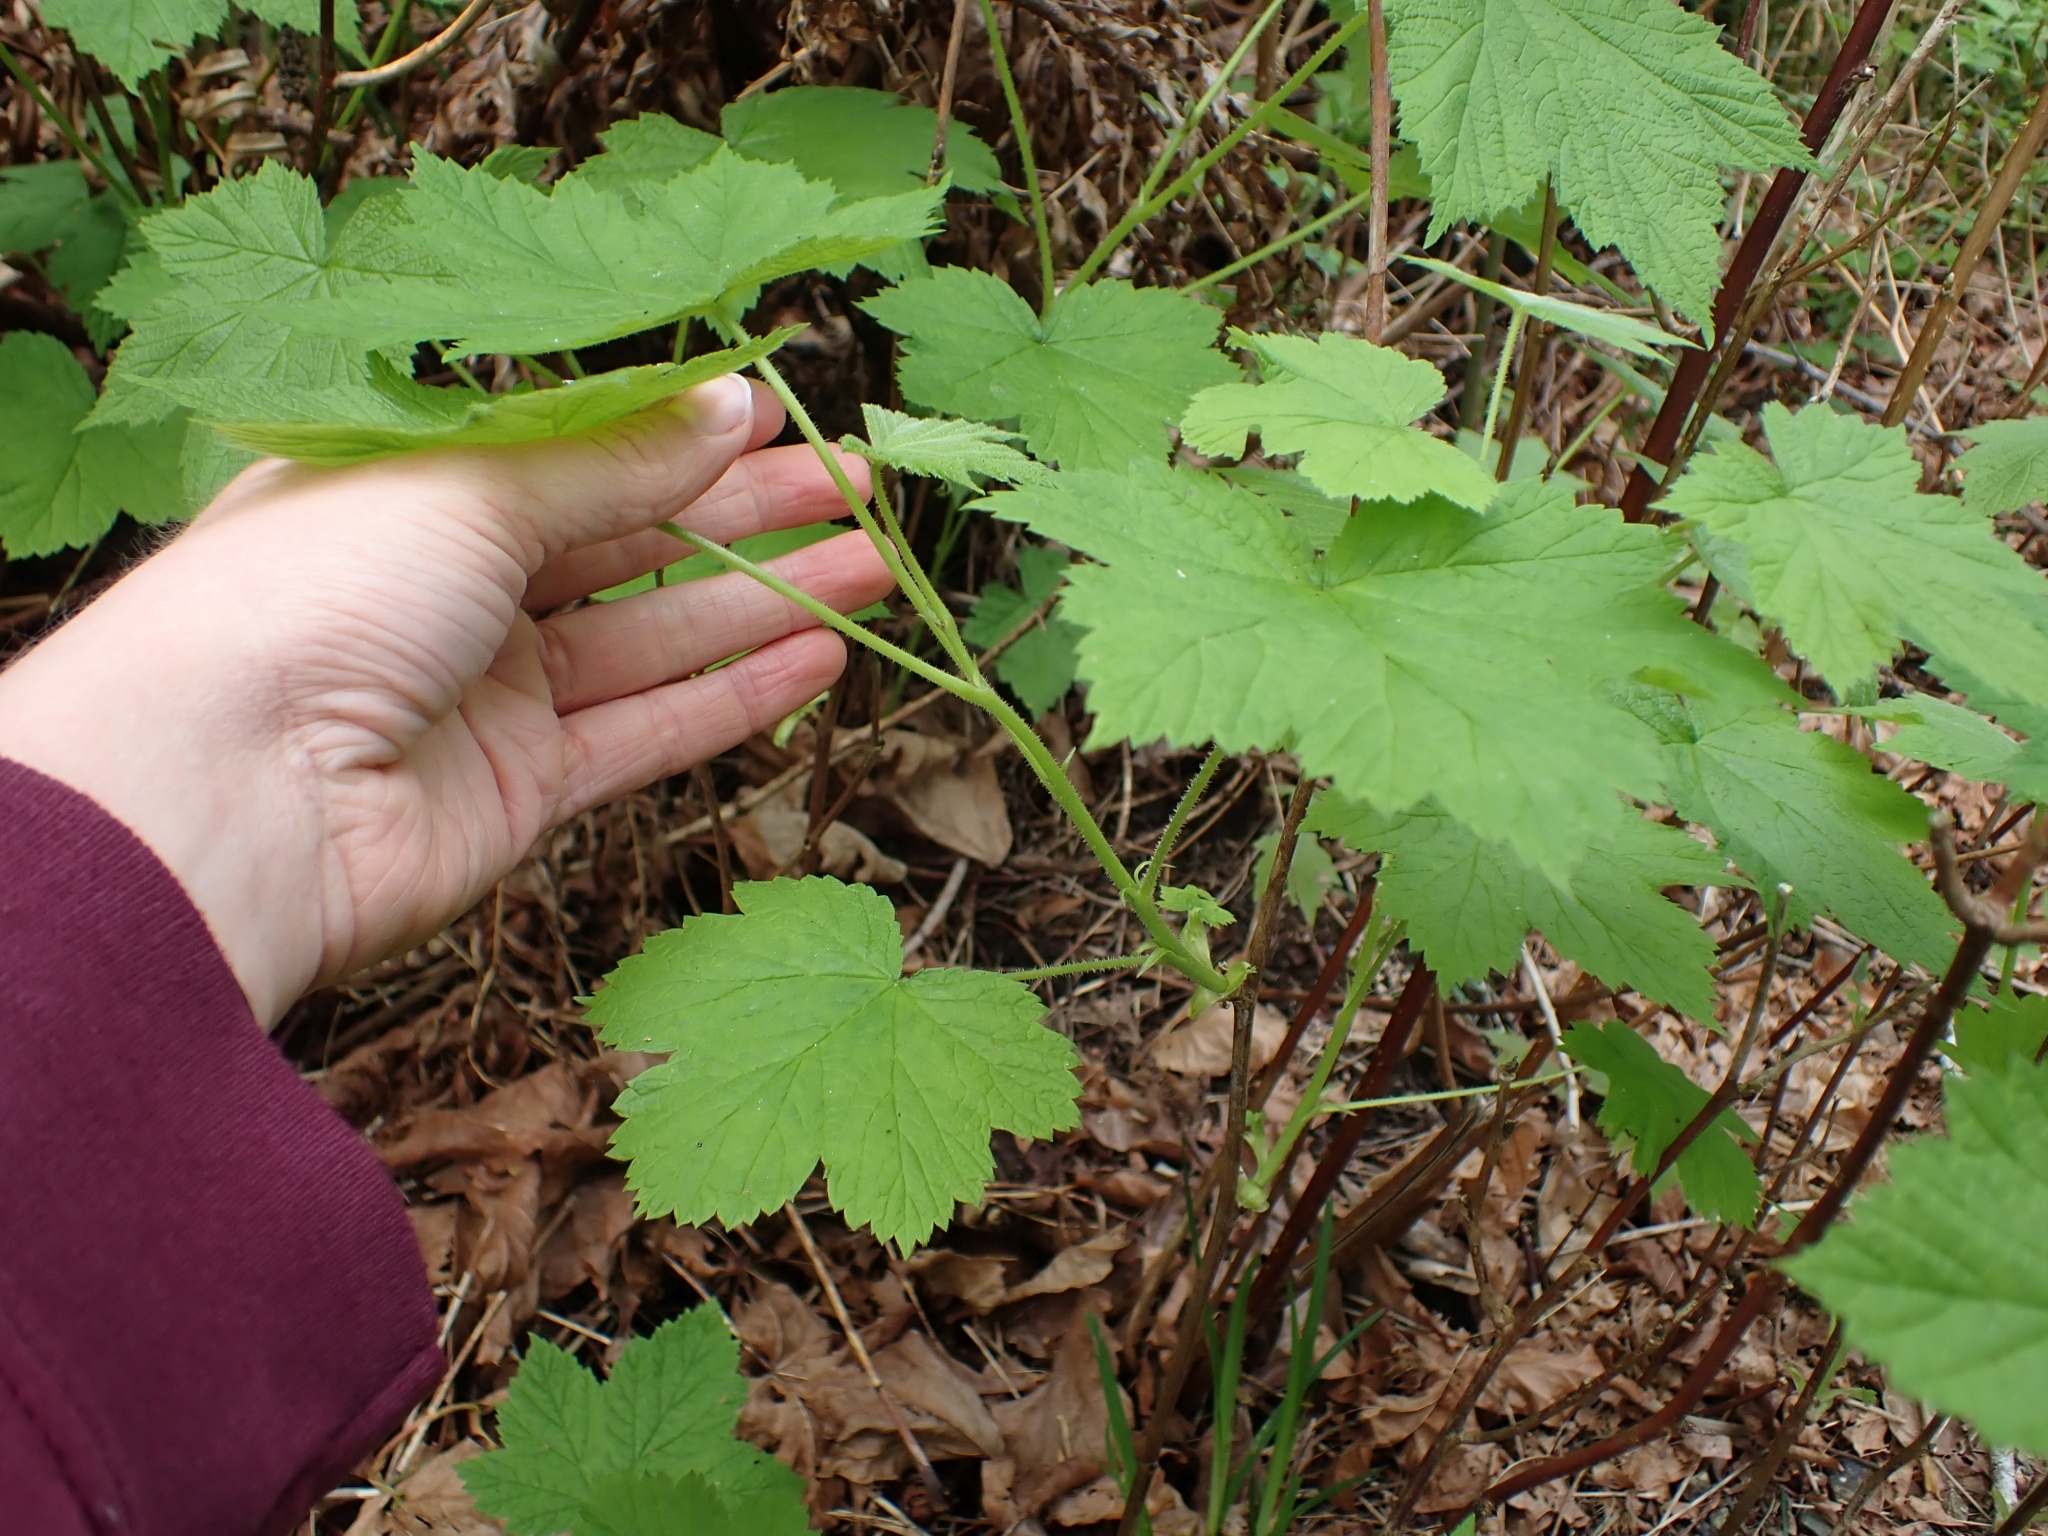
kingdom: Plantae
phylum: Tracheophyta
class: Magnoliopsida
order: Rosales
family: Rosaceae
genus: Rubus
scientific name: Rubus parviflorus
